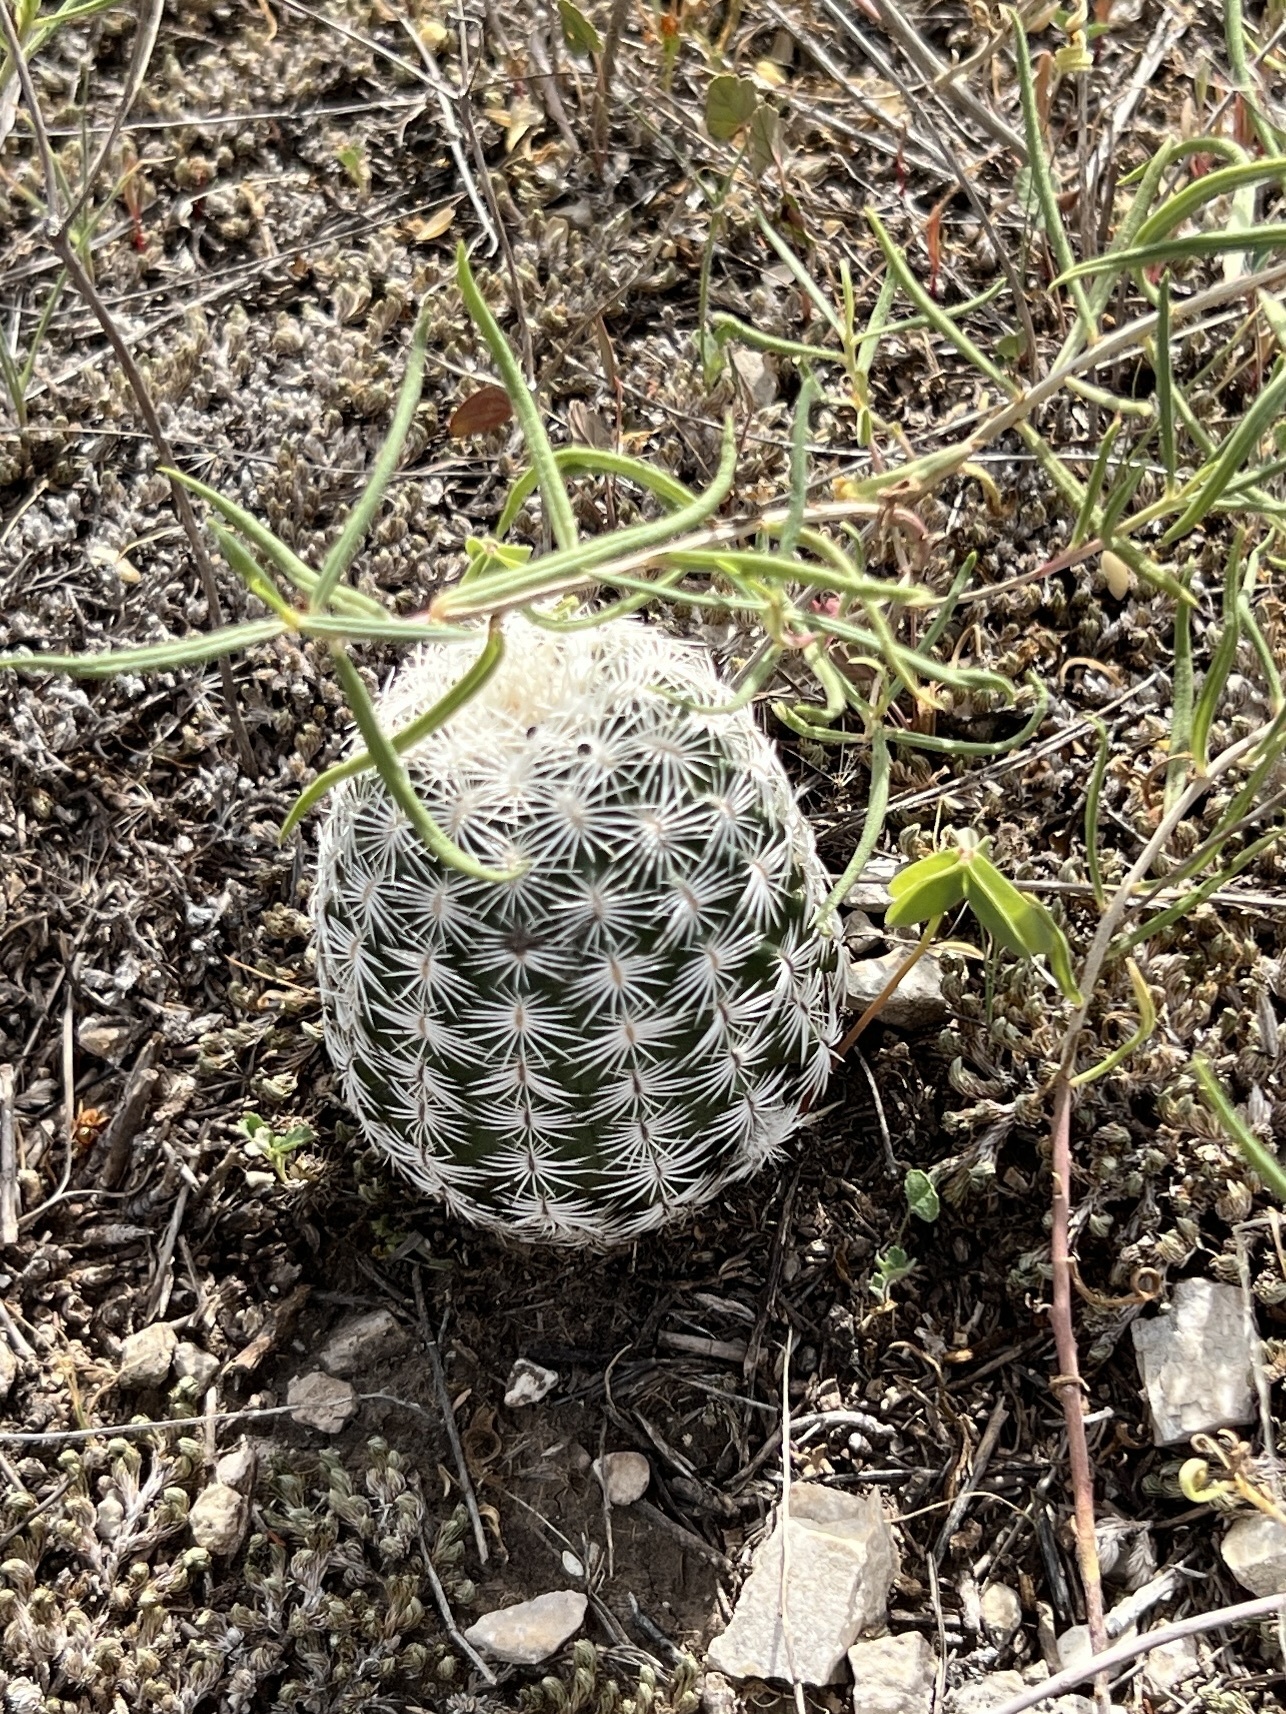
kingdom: Plantae
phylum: Tracheophyta
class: Magnoliopsida
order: Caryophyllales
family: Cactaceae
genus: Echinocereus
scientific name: Echinocereus reichenbachii
